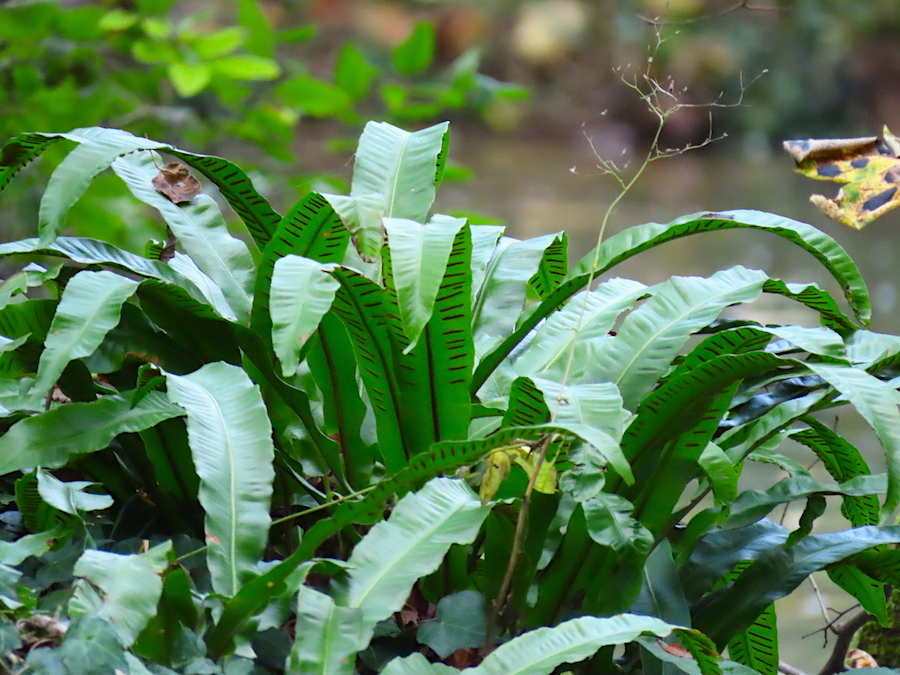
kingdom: Plantae
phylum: Tracheophyta
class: Polypodiopsida
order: Polypodiales
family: Aspleniaceae
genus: Asplenium
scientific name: Asplenium scolopendrium
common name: Hart's-tongue fern
